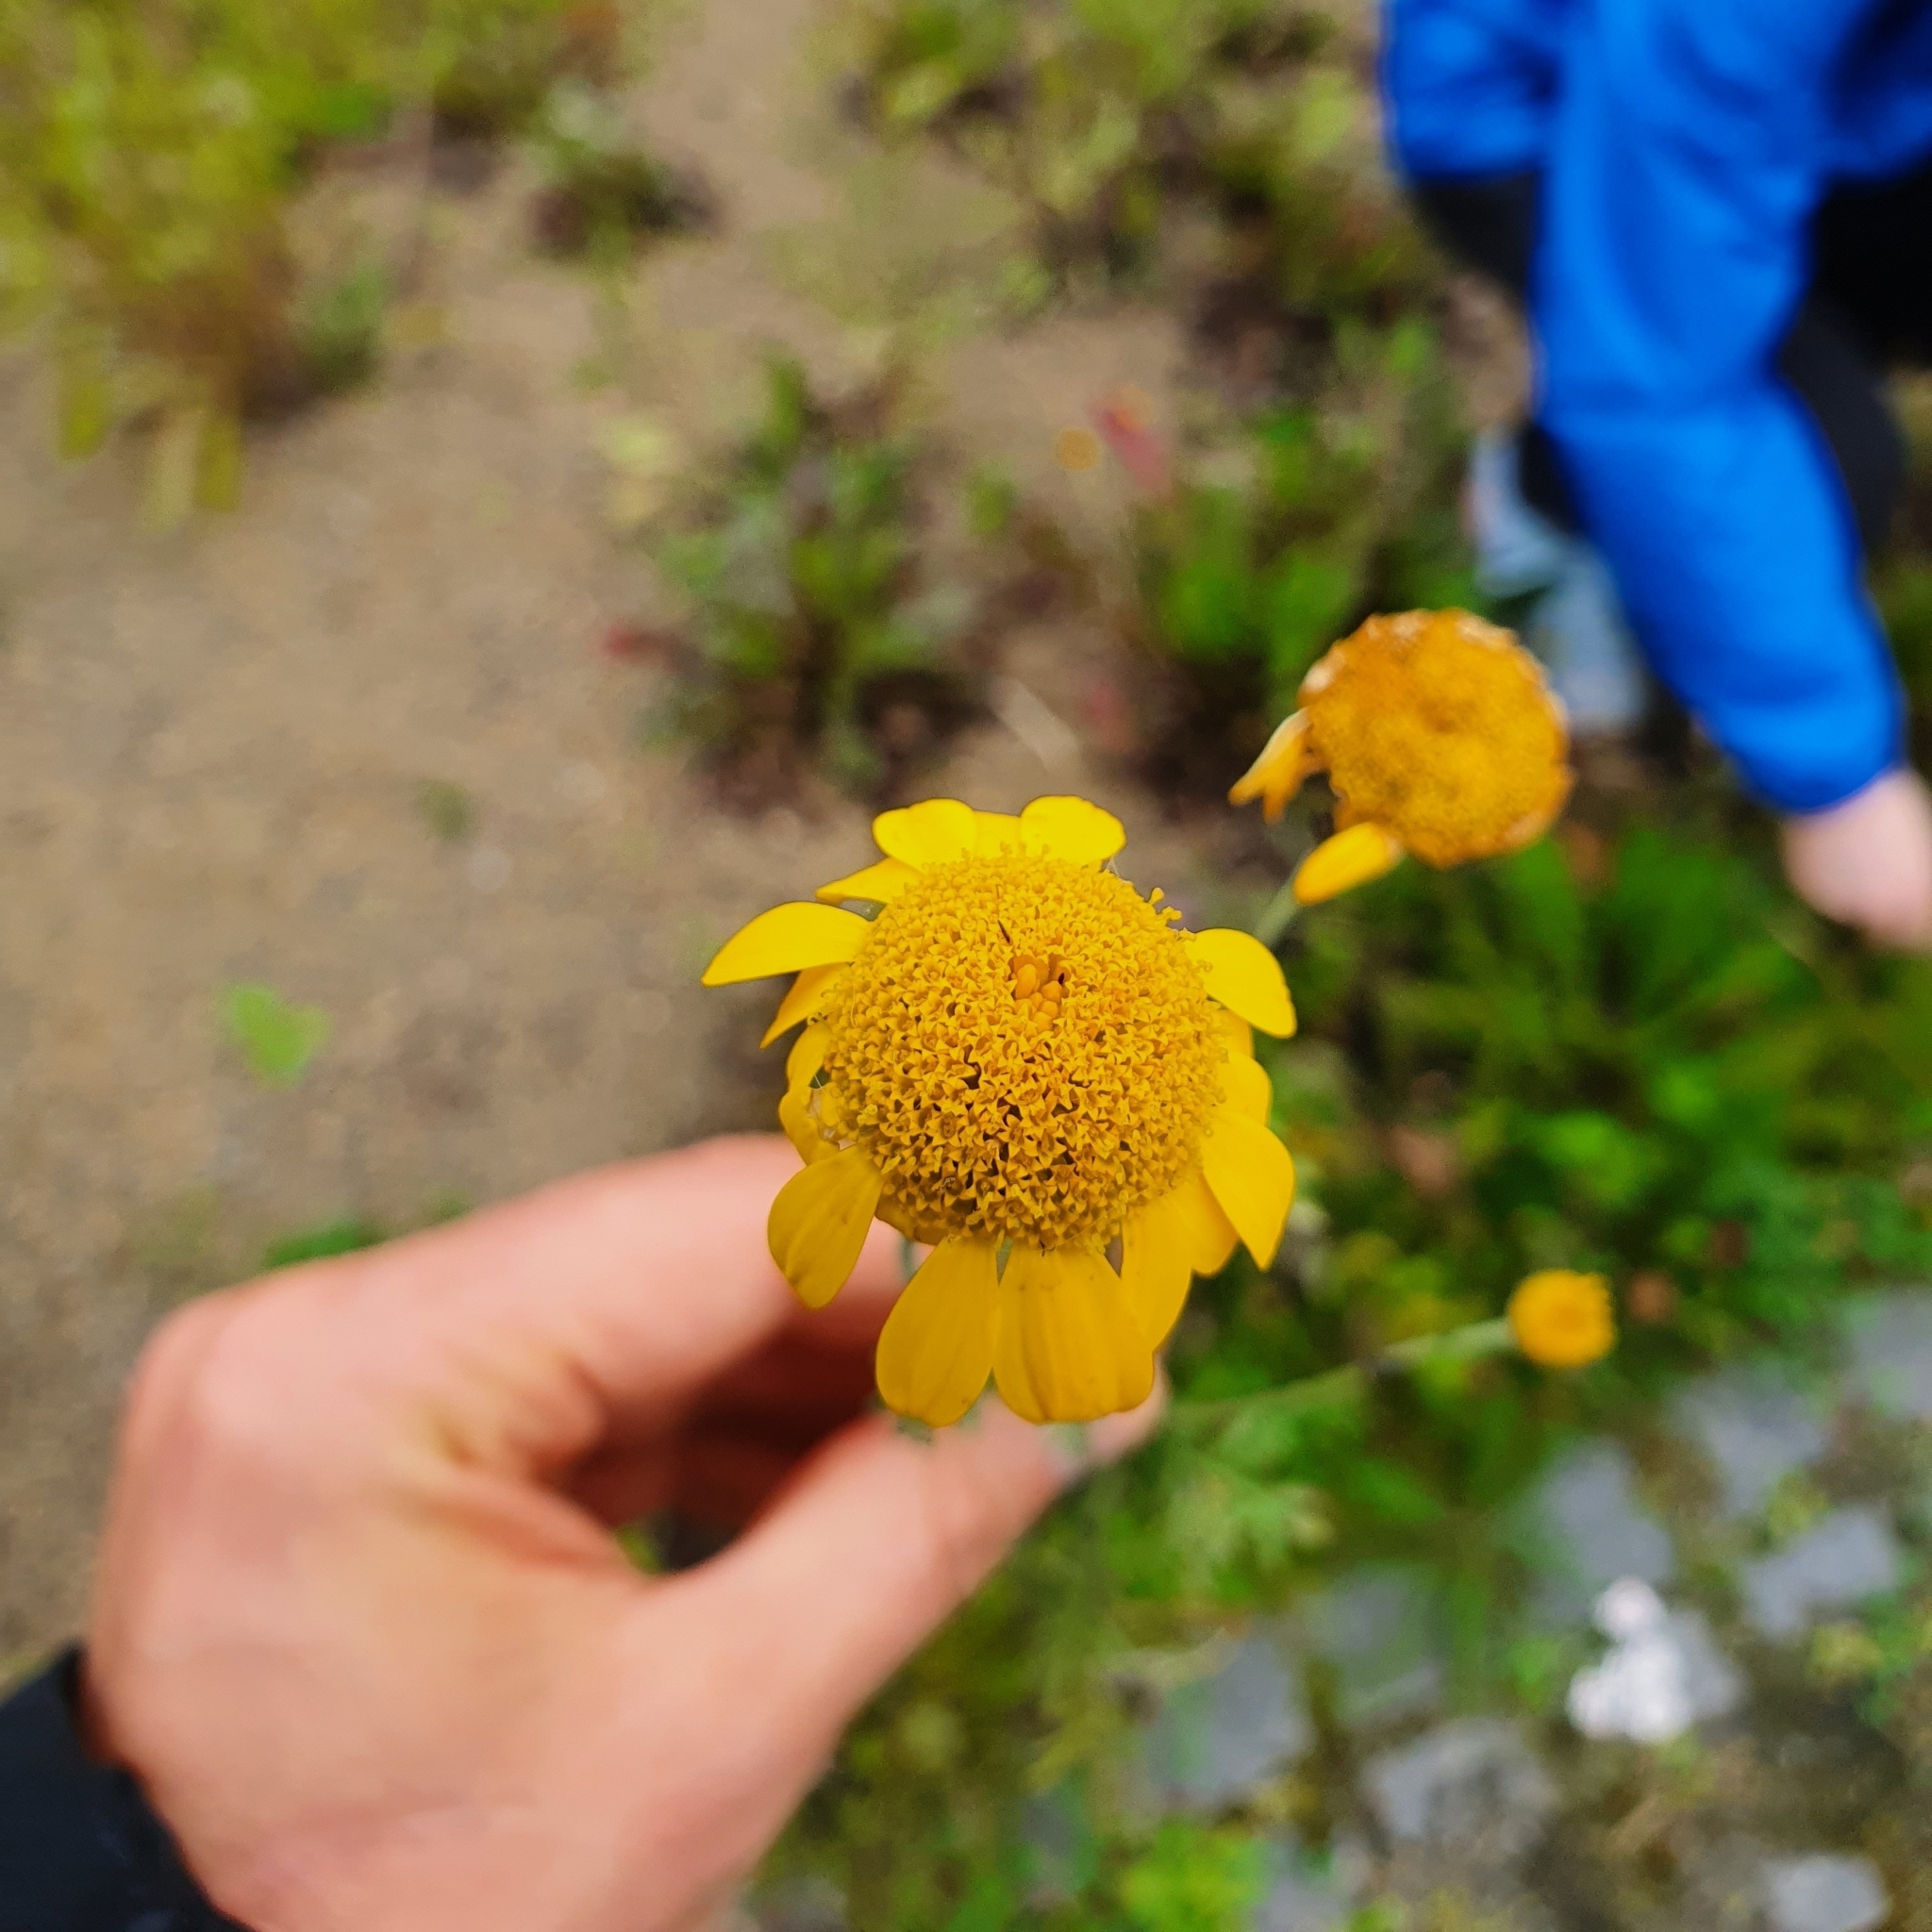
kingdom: Plantae
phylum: Tracheophyta
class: Magnoliopsida
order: Asterales
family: Asteraceae
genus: Cota
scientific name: Cota tinctoria
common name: Golden chamomile
